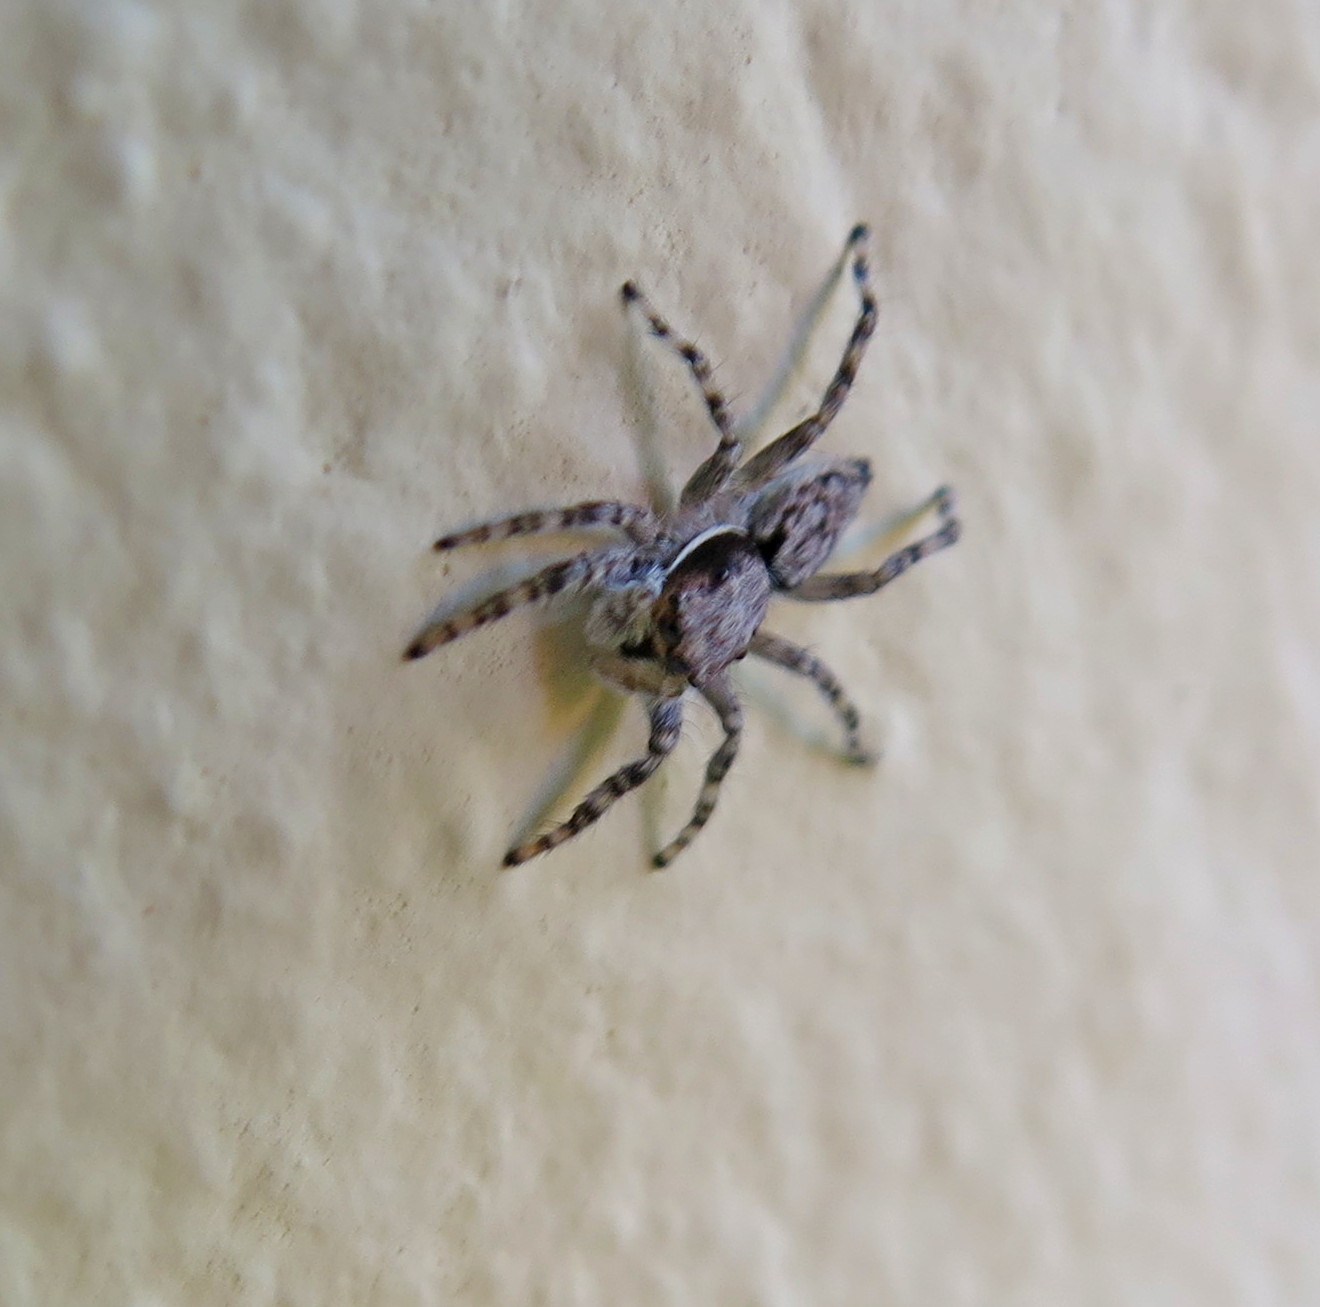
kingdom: Animalia
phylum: Arthropoda
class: Arachnida
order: Araneae
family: Salticidae
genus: Menemerus
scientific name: Menemerus bivittatus
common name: Gray wall jumper
